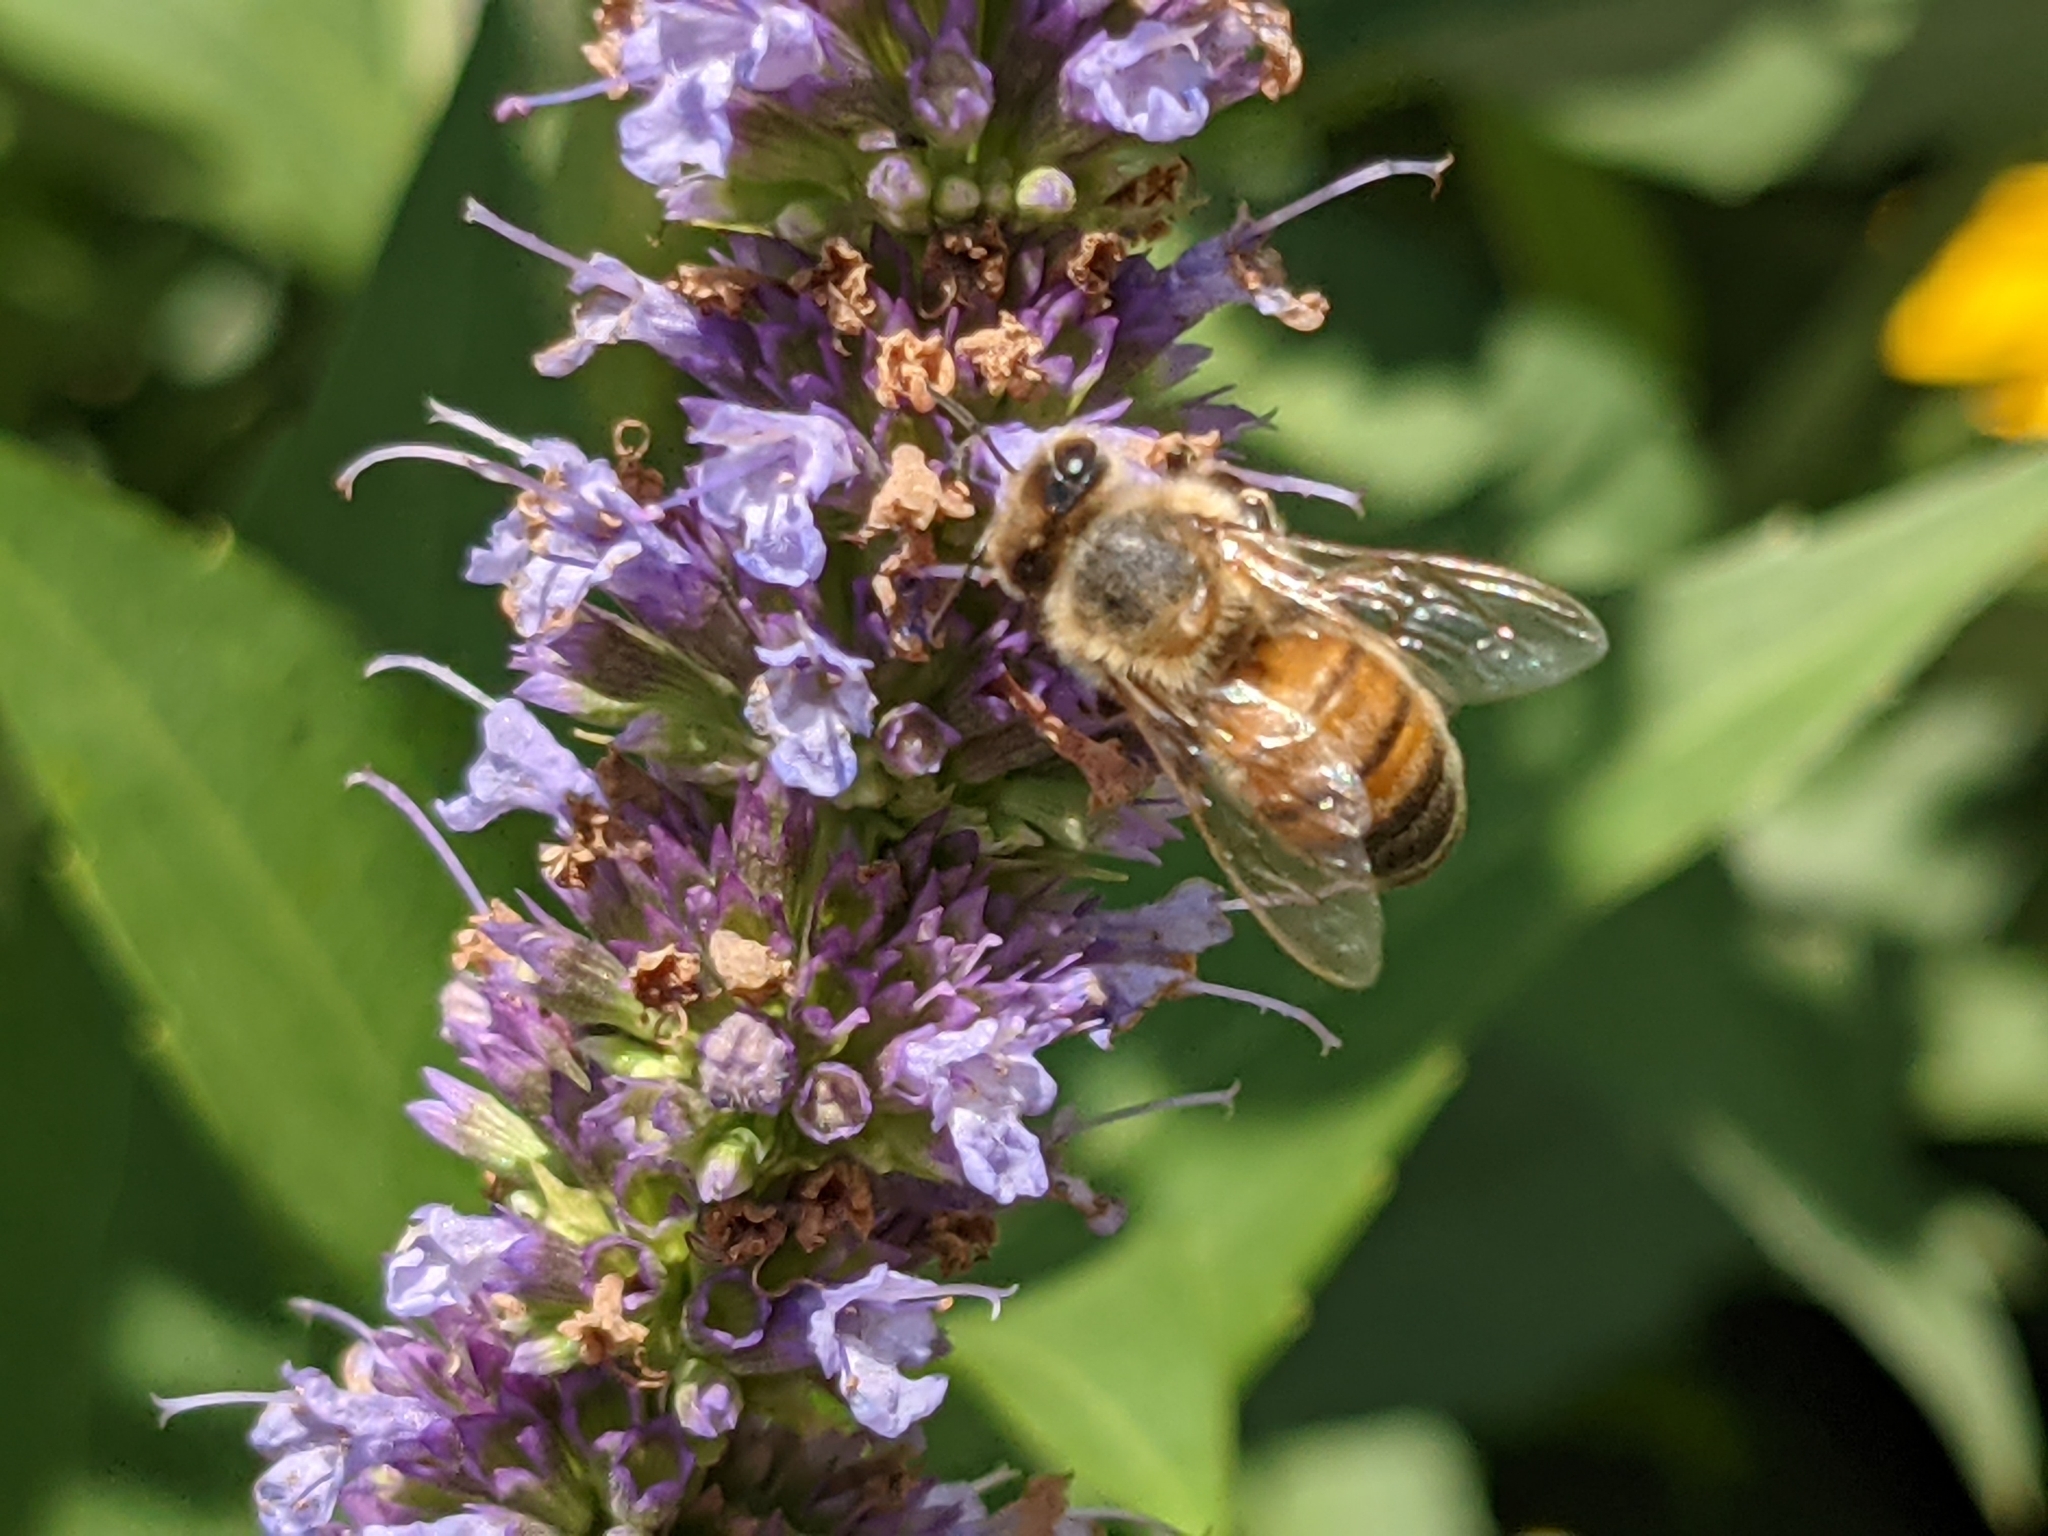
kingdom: Animalia
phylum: Arthropoda
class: Insecta
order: Hymenoptera
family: Apidae
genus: Apis
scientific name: Apis mellifera
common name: Honey bee
